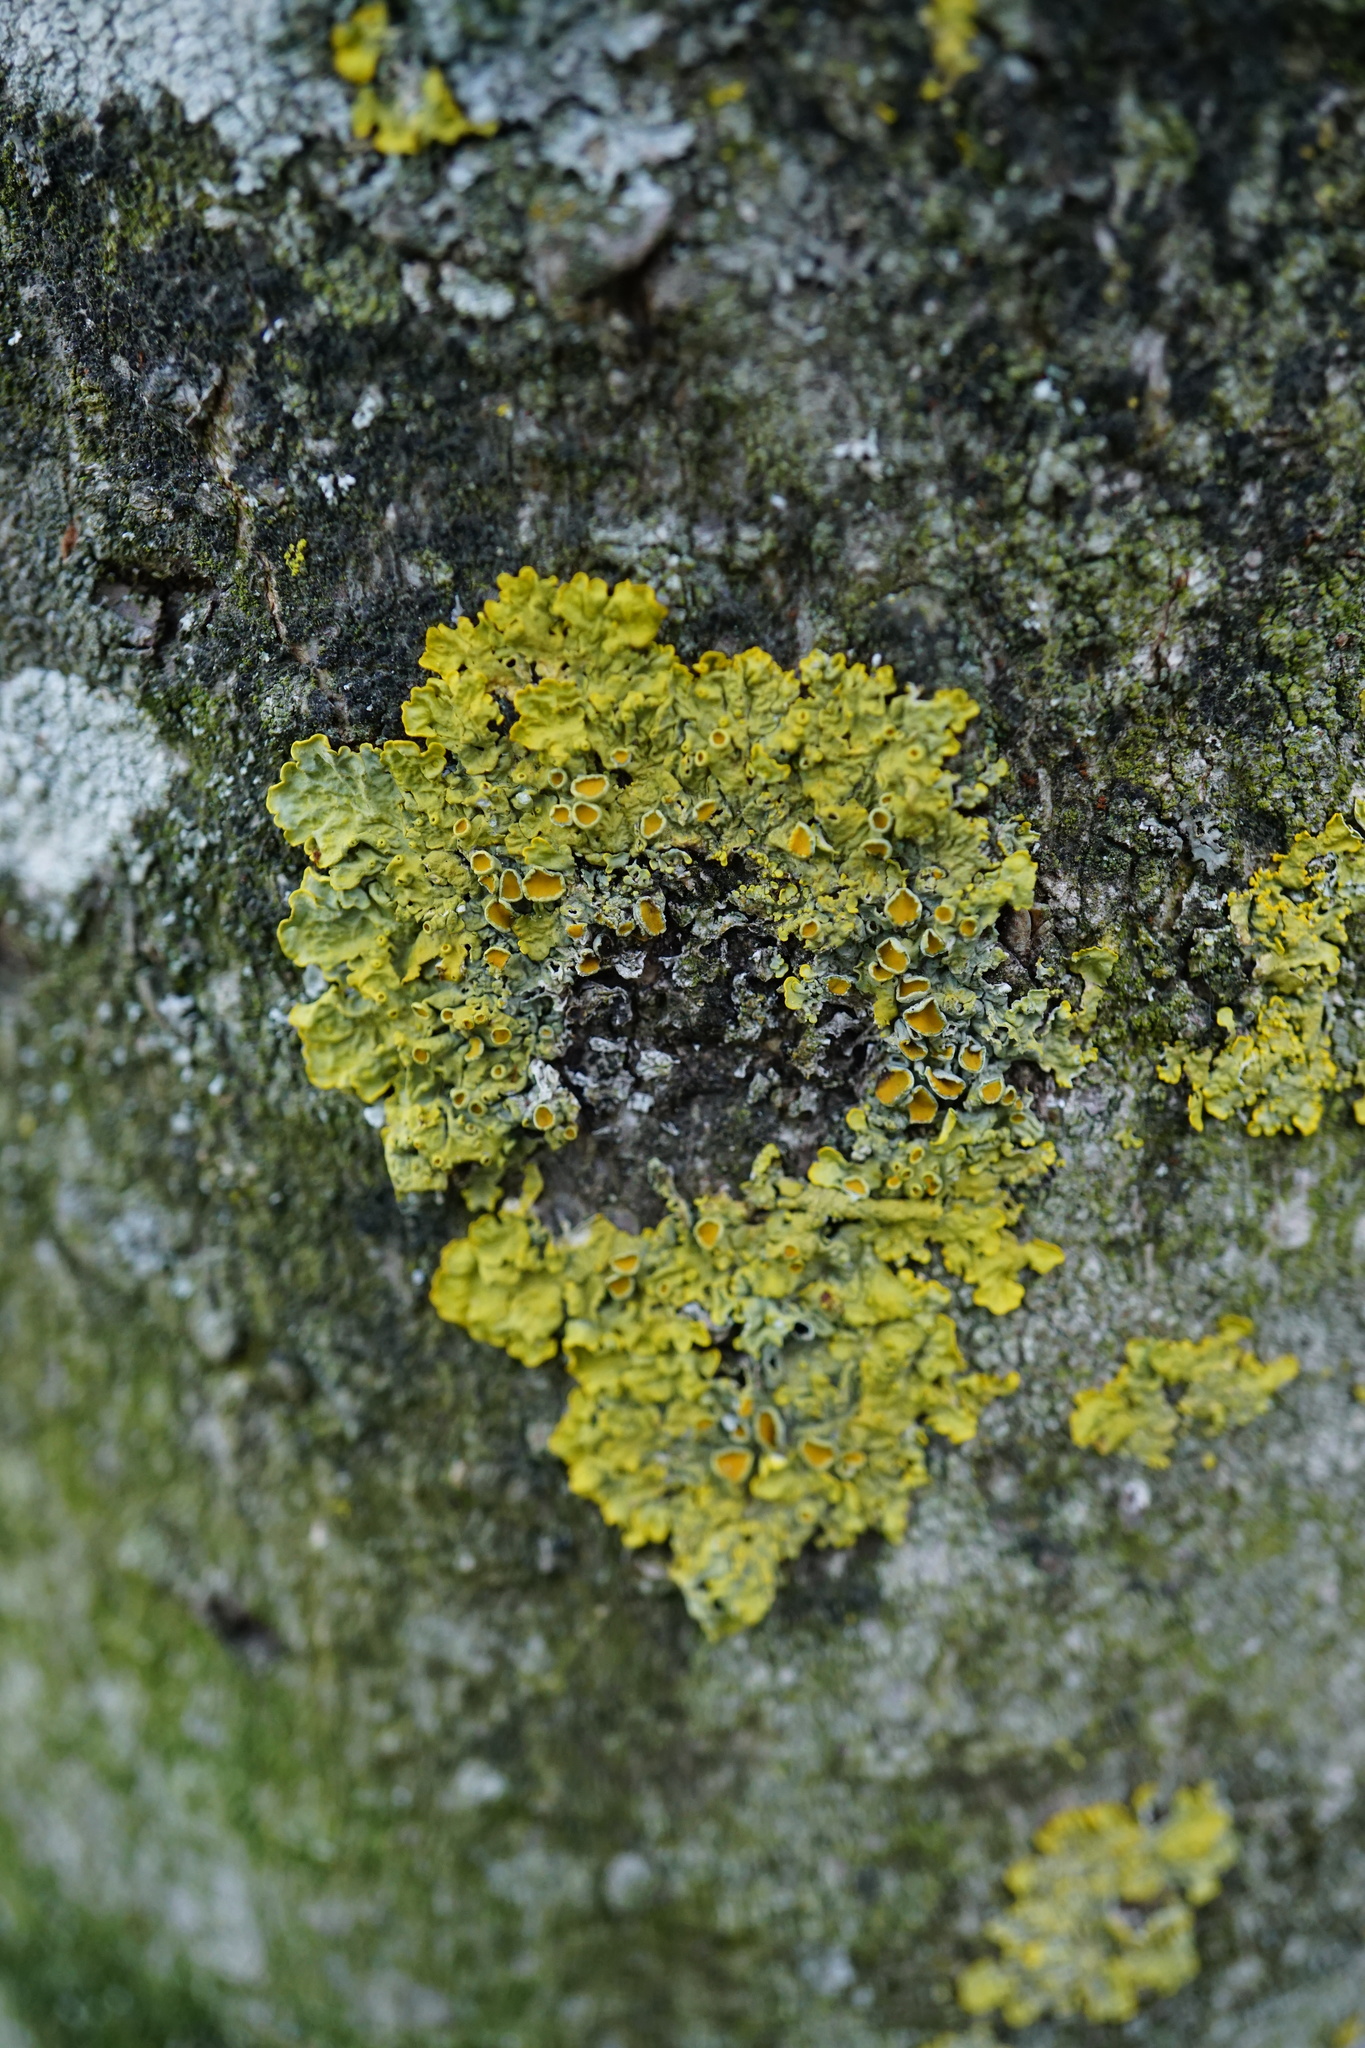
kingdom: Fungi
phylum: Ascomycota
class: Lecanoromycetes
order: Teloschistales
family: Teloschistaceae
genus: Xanthoria
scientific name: Xanthoria parietina
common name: Common orange lichen
